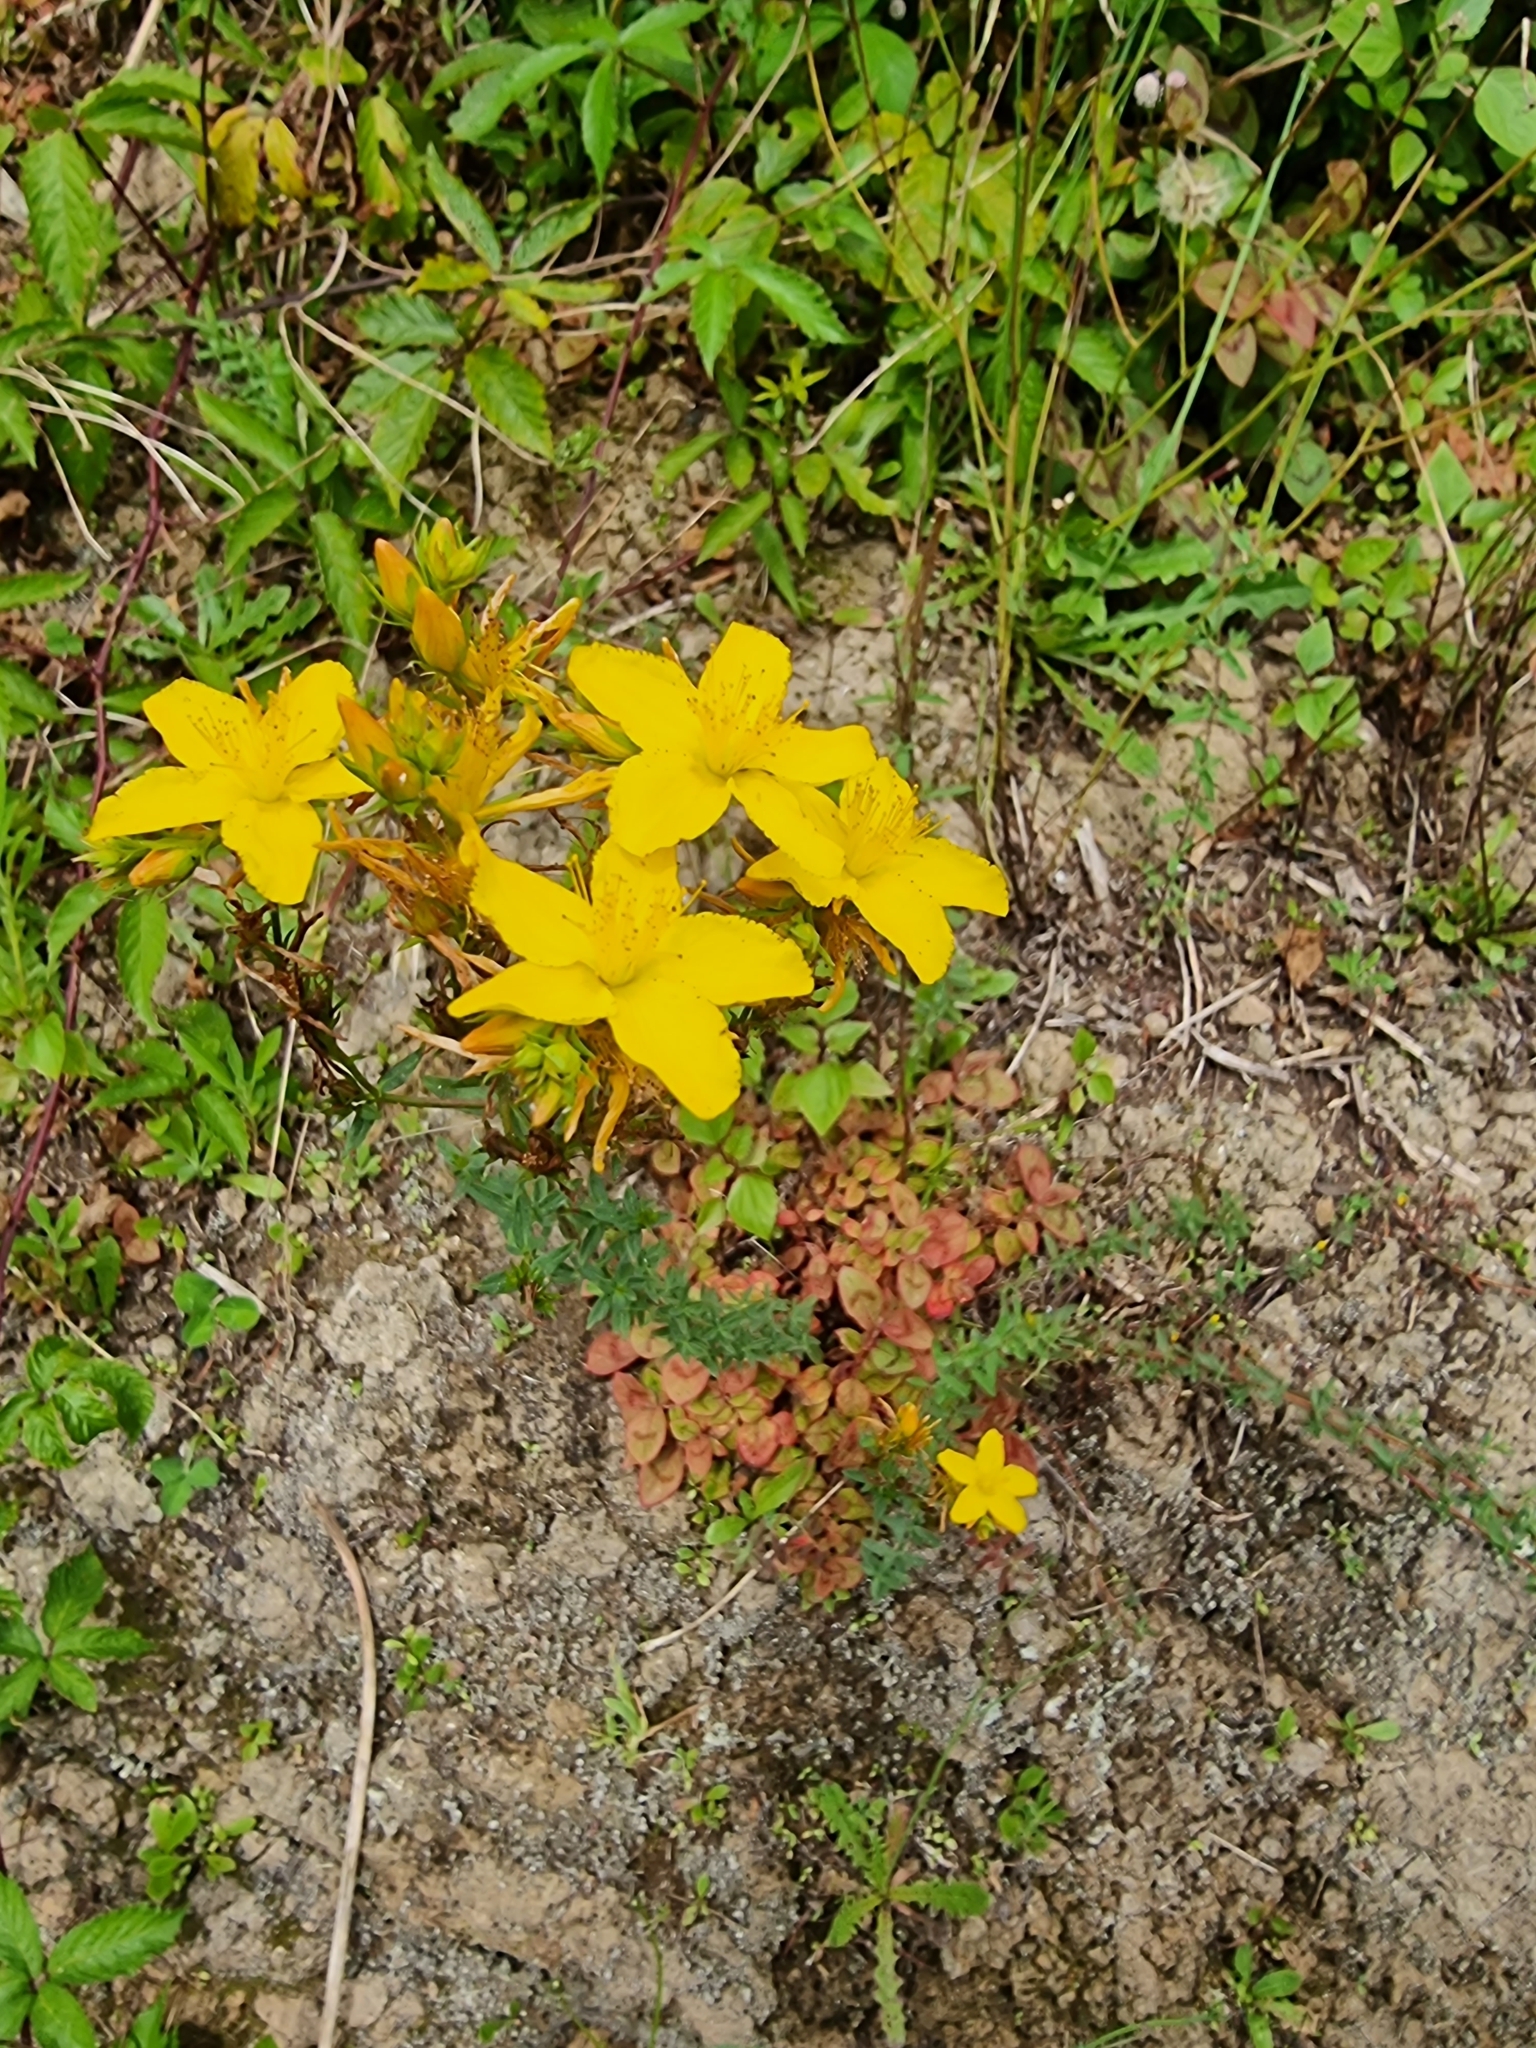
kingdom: Plantae
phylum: Tracheophyta
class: Magnoliopsida
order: Malpighiales
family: Hypericaceae
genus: Hypericum
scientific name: Hypericum perforatum
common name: Common st. johnswort
